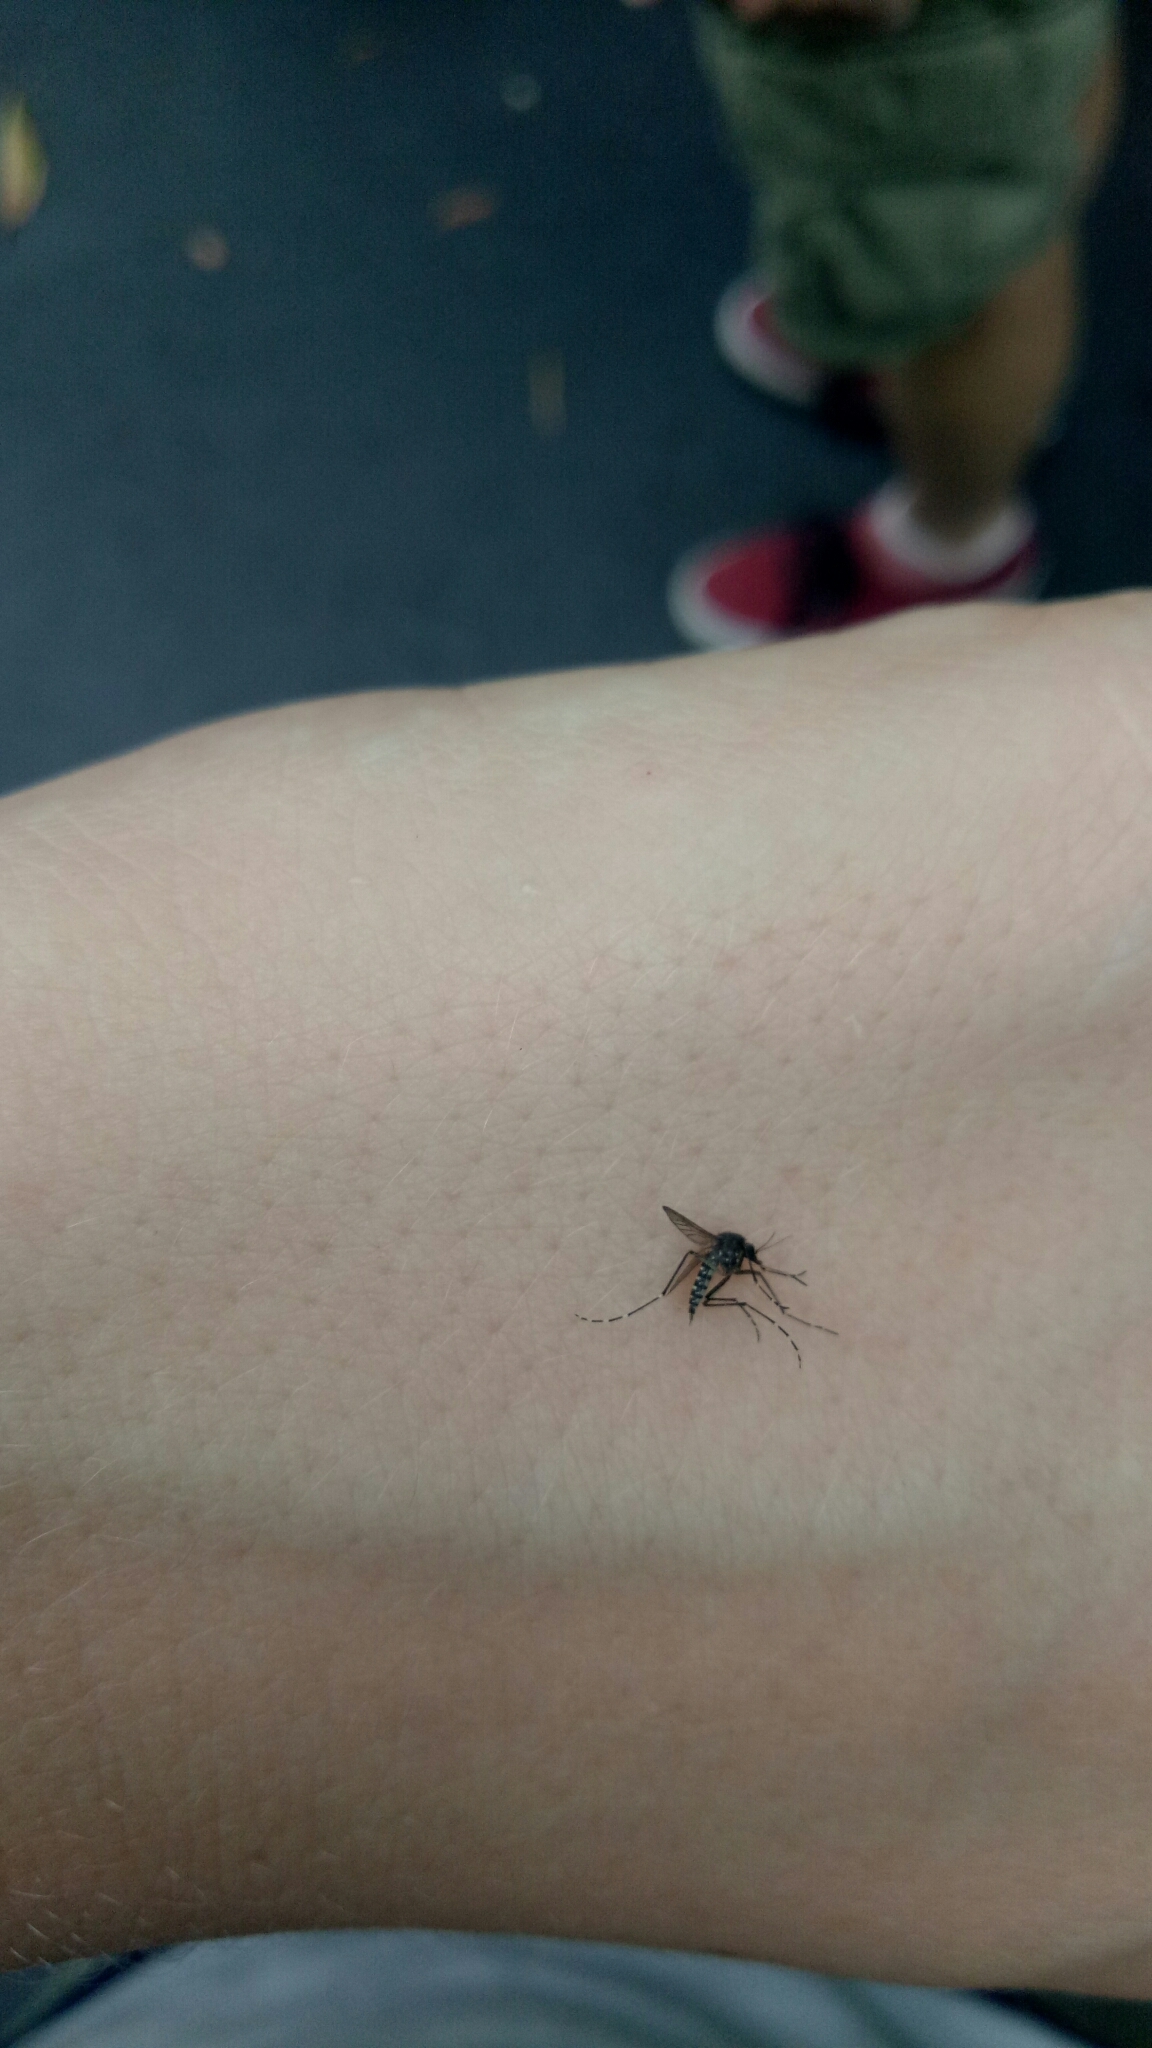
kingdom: Animalia
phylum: Arthropoda
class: Insecta
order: Diptera
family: Culicidae
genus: Aedes
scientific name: Aedes vigilax
